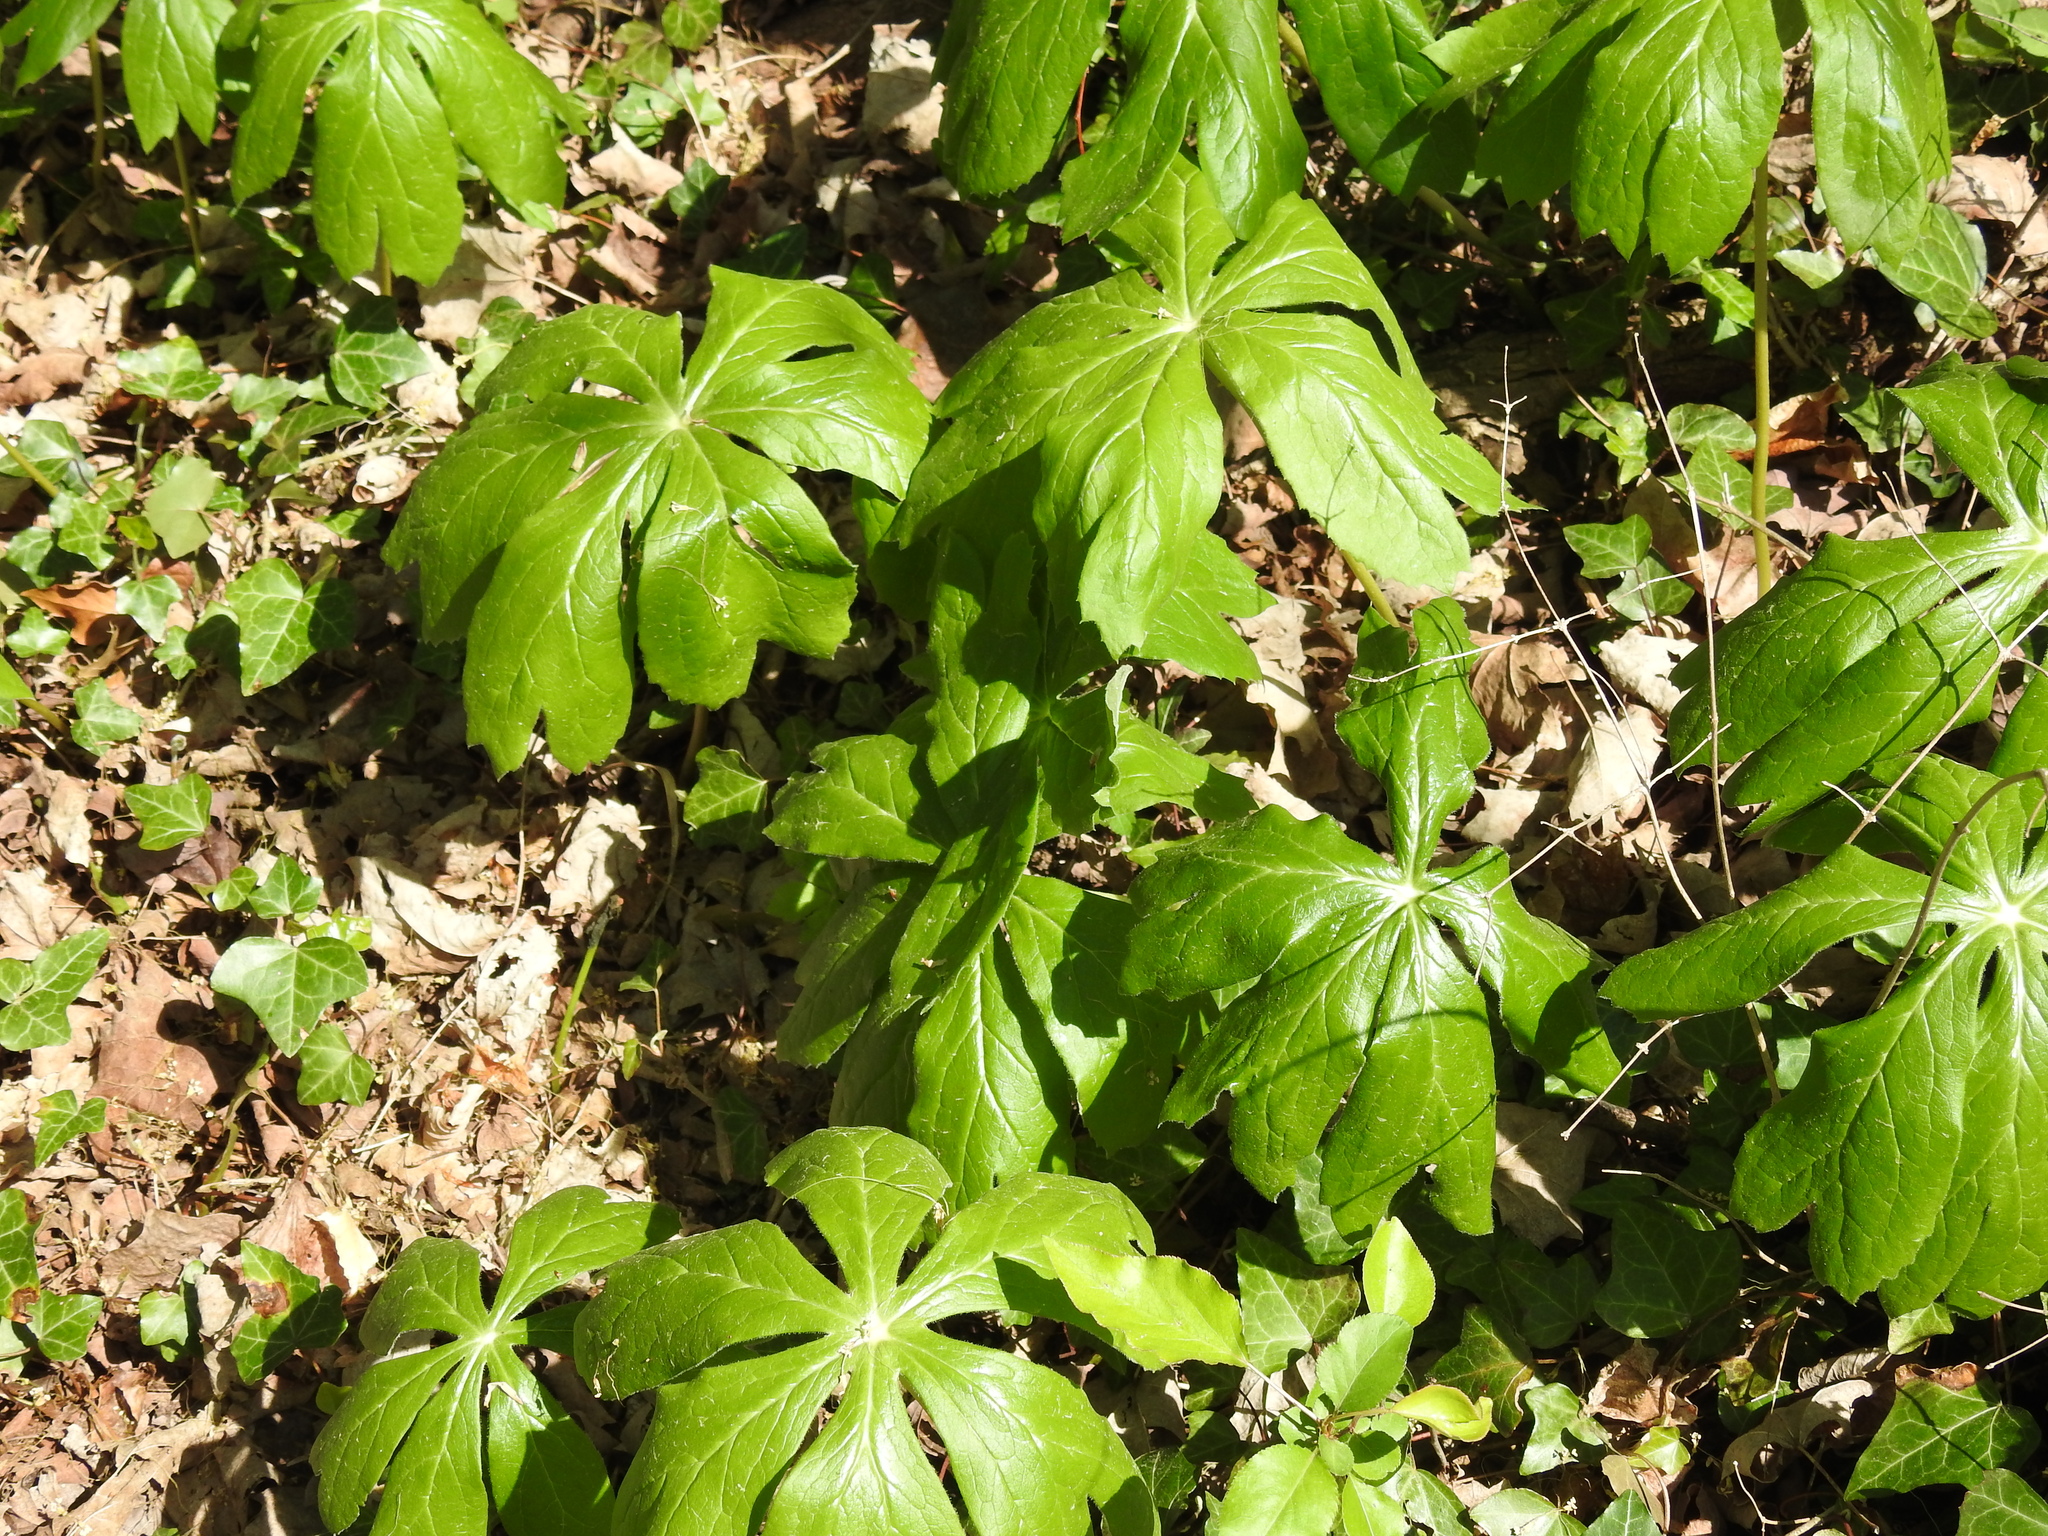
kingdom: Plantae
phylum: Tracheophyta
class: Magnoliopsida
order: Ranunculales
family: Berberidaceae
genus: Podophyllum
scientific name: Podophyllum peltatum
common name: Wild mandrake
